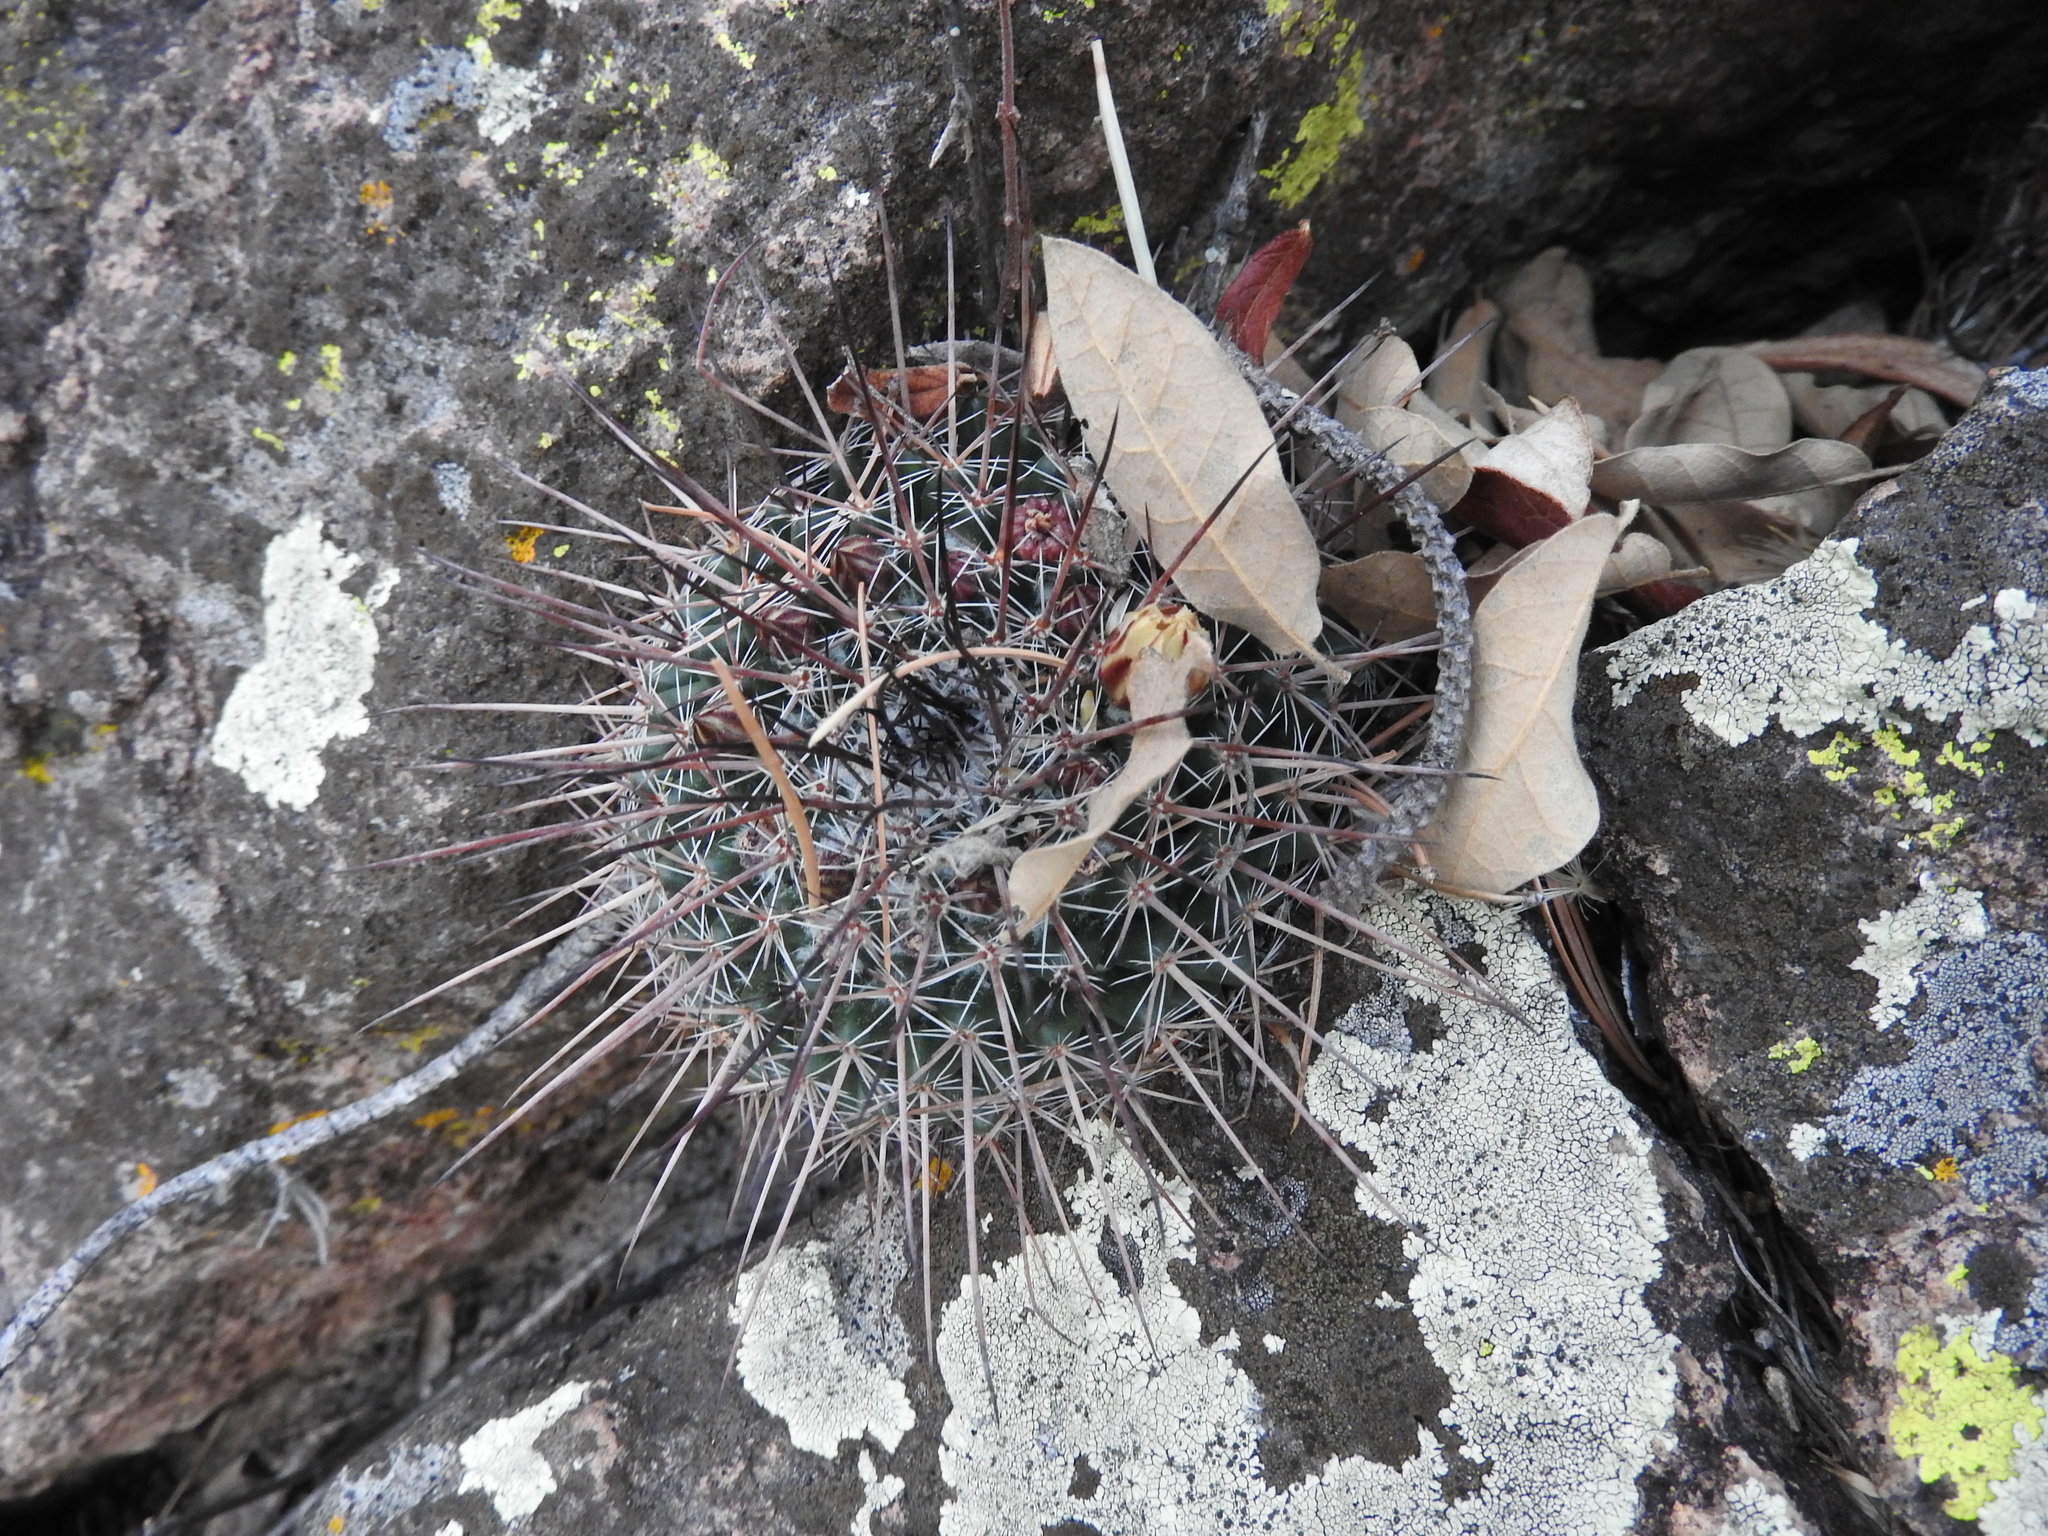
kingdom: Plantae
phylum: Tracheophyta
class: Magnoliopsida
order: Caryophyllales
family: Cactaceae
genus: Mammillaria
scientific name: Mammillaria gigantea
